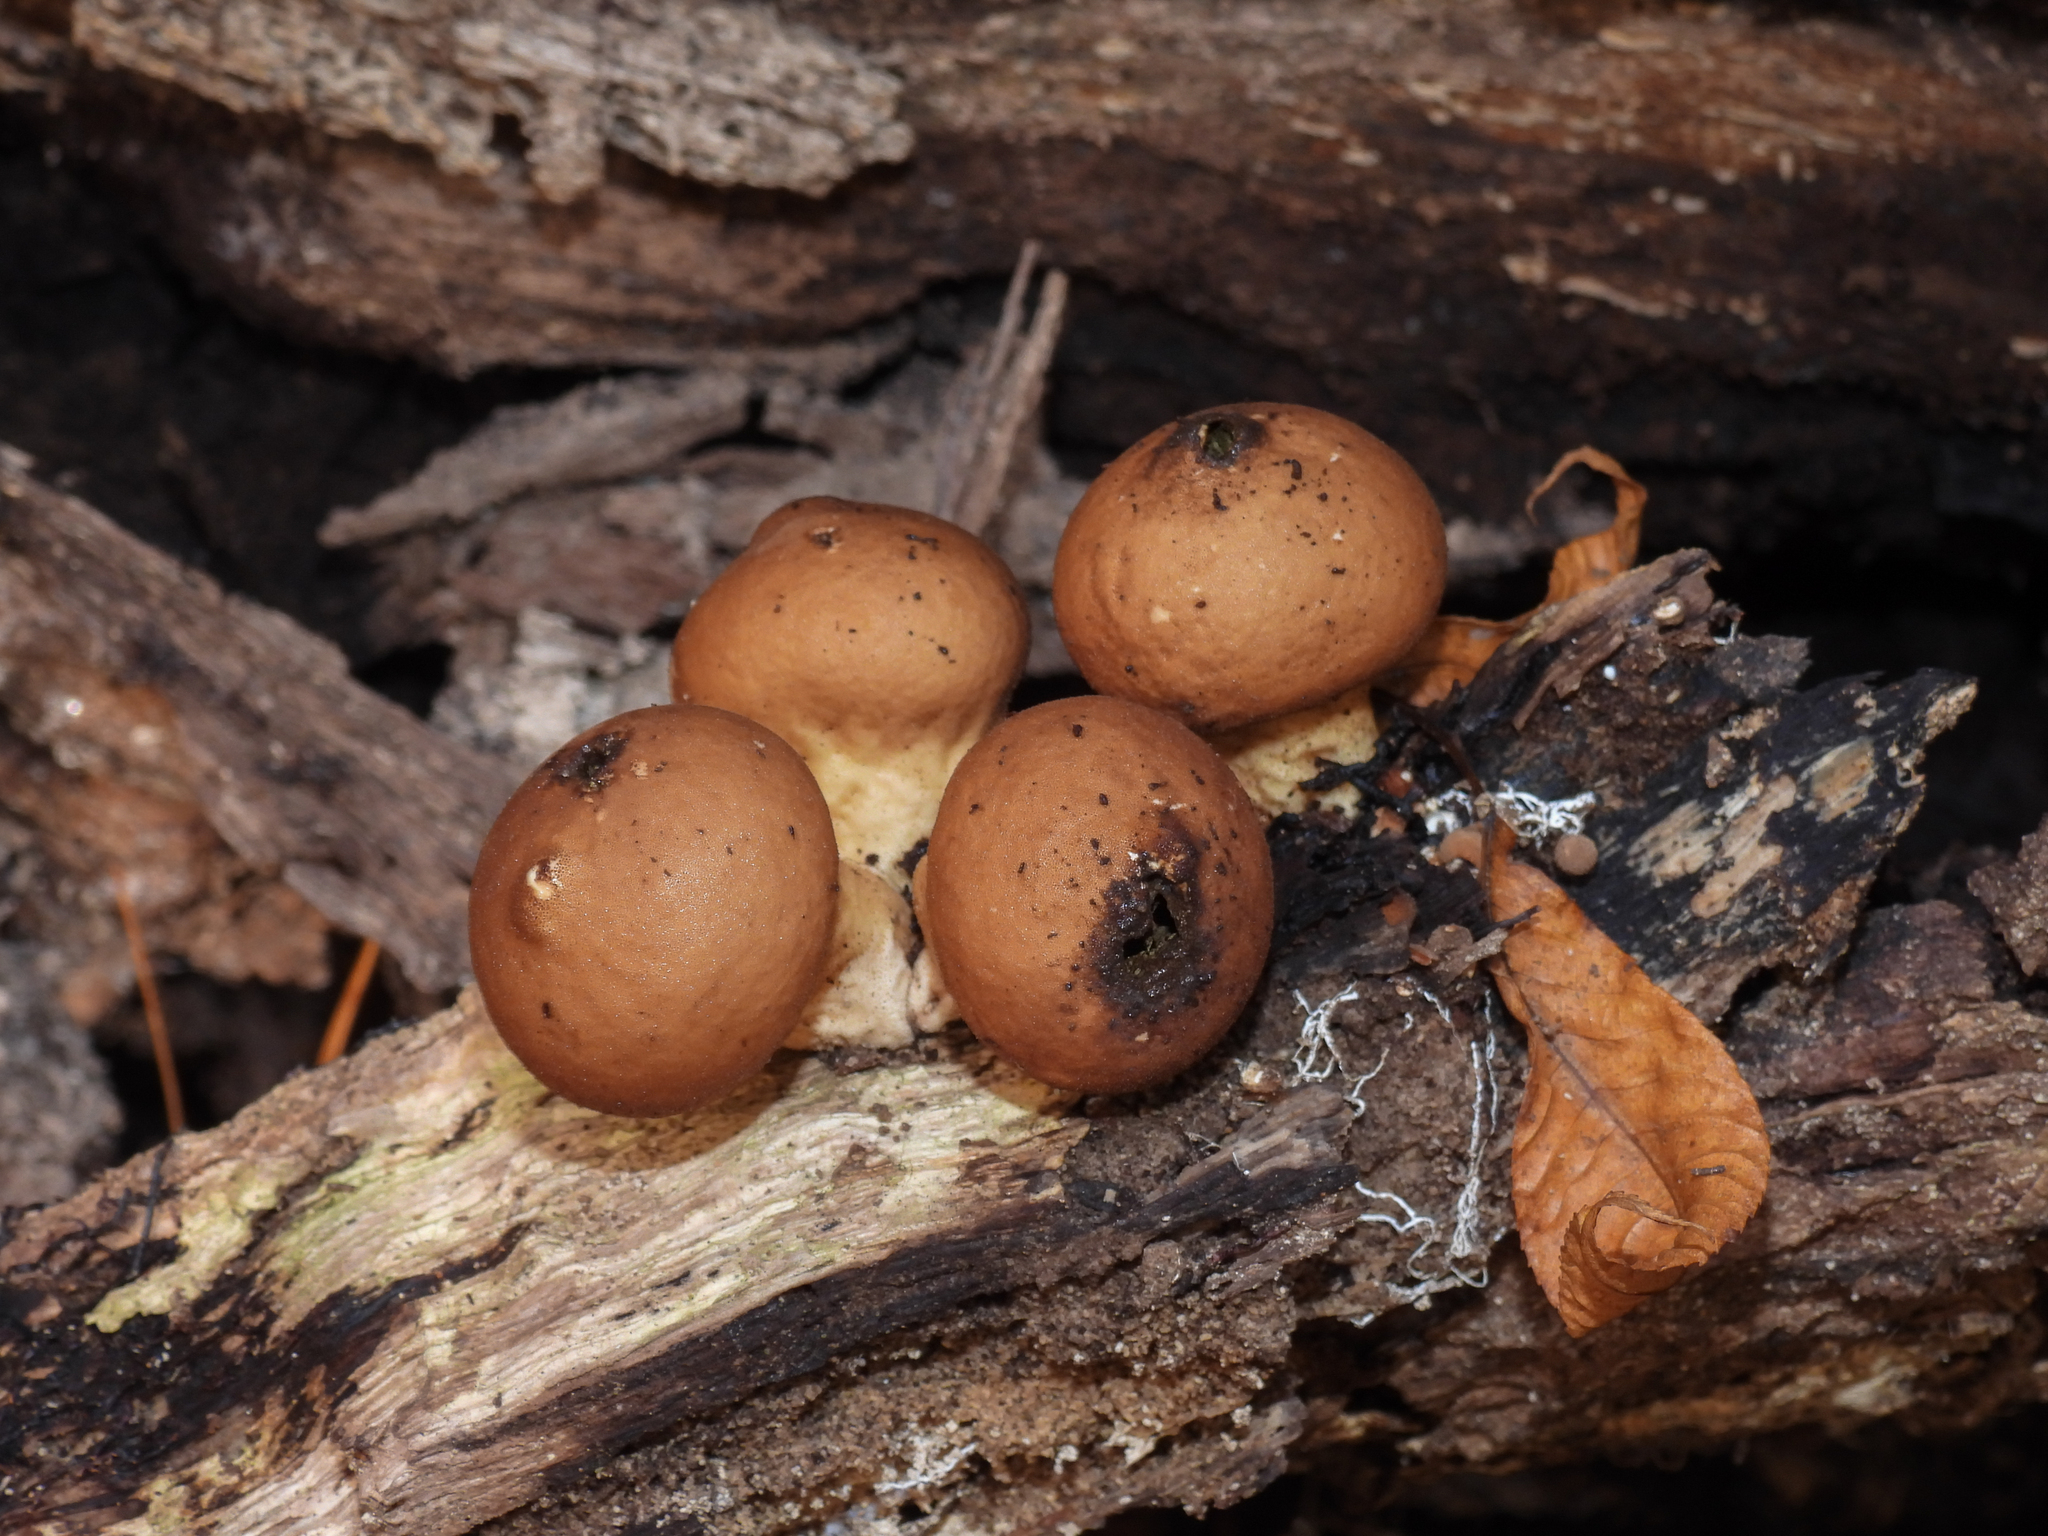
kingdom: Fungi
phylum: Basidiomycota
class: Agaricomycetes
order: Agaricales
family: Lycoperdaceae
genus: Apioperdon
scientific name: Apioperdon pyriforme
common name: Pear-shaped puffball
